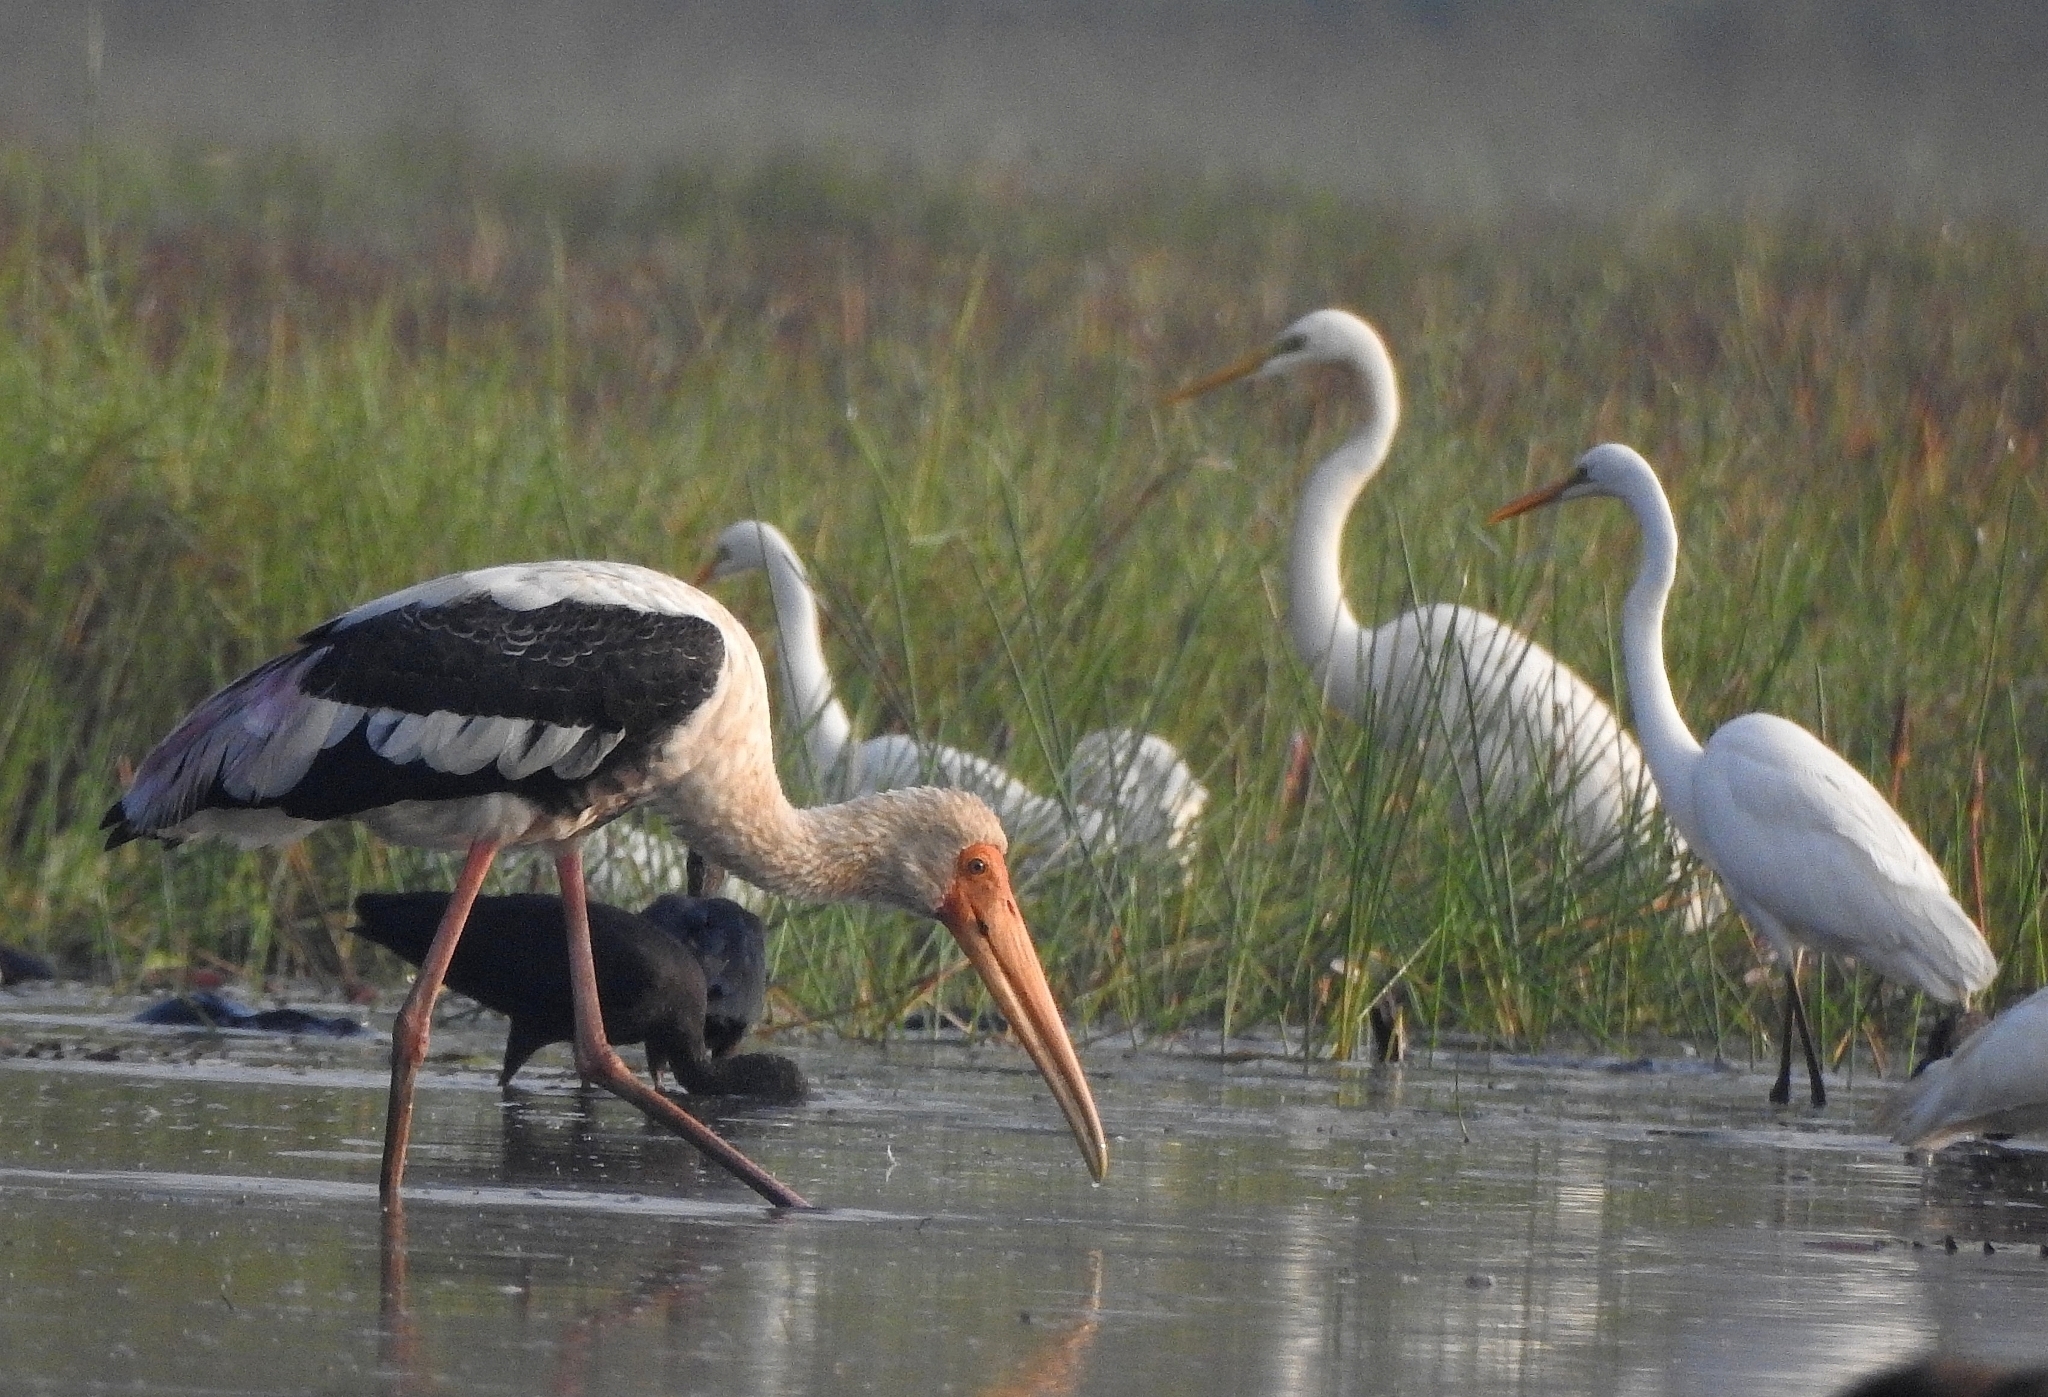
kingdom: Animalia
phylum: Chordata
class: Aves
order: Ciconiiformes
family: Ciconiidae
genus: Mycteria
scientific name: Mycteria leucocephala
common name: Painted stork
